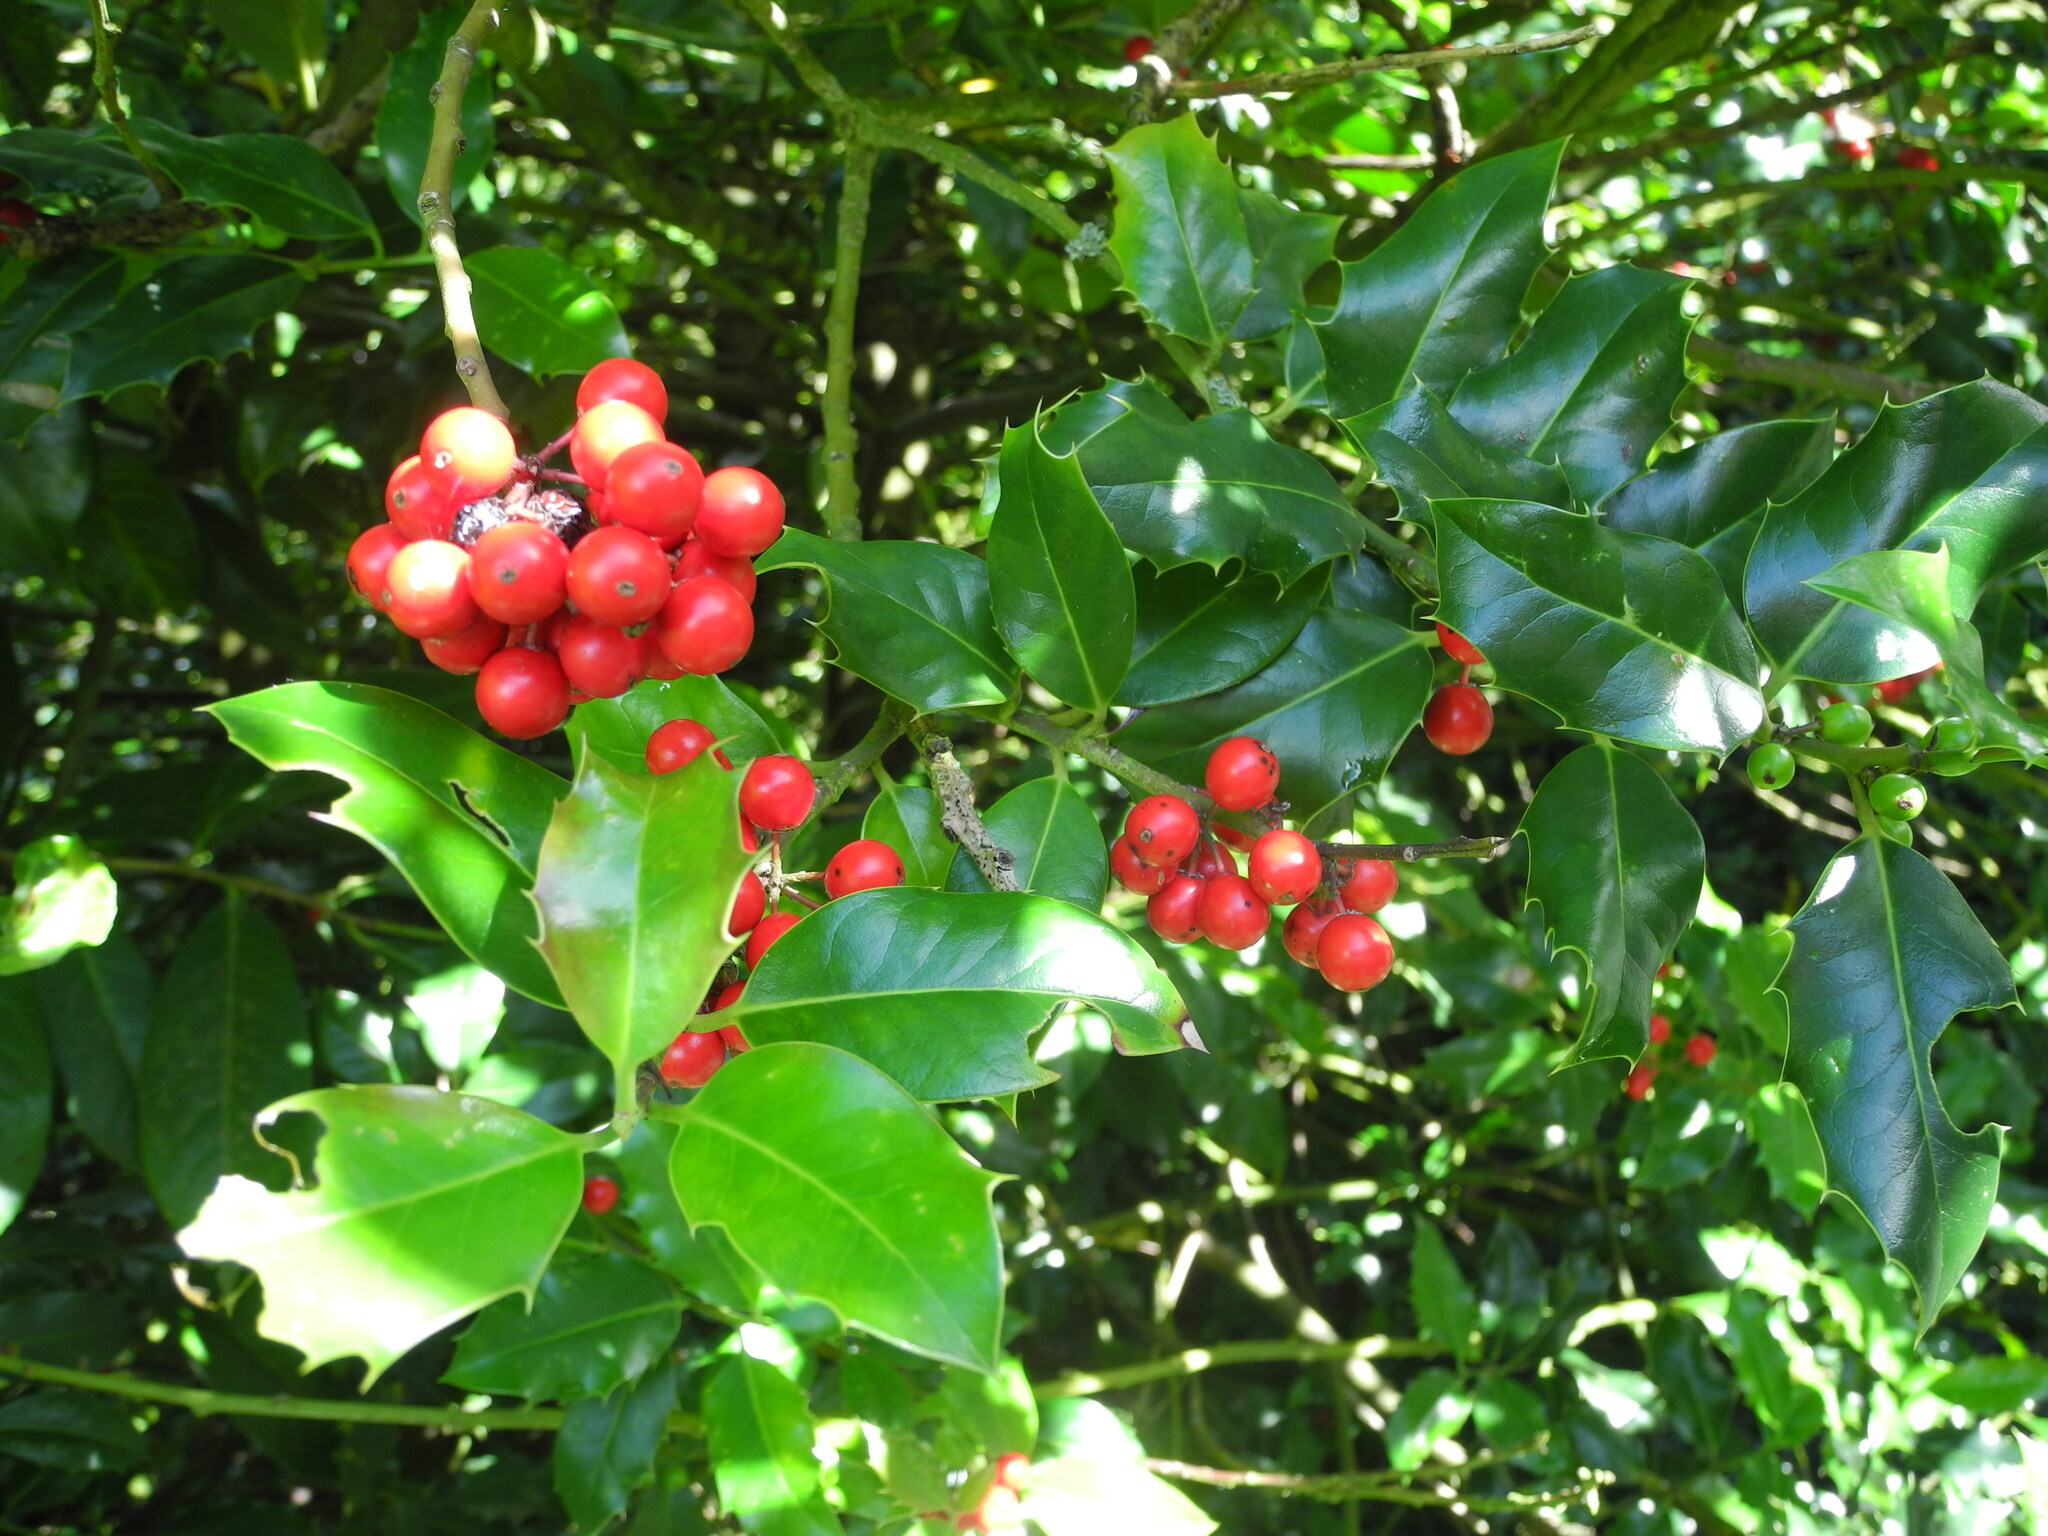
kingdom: Plantae
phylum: Tracheophyta
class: Magnoliopsida
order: Aquifoliales
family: Aquifoliaceae
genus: Ilex
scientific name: Ilex aquifolium
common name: English holly
